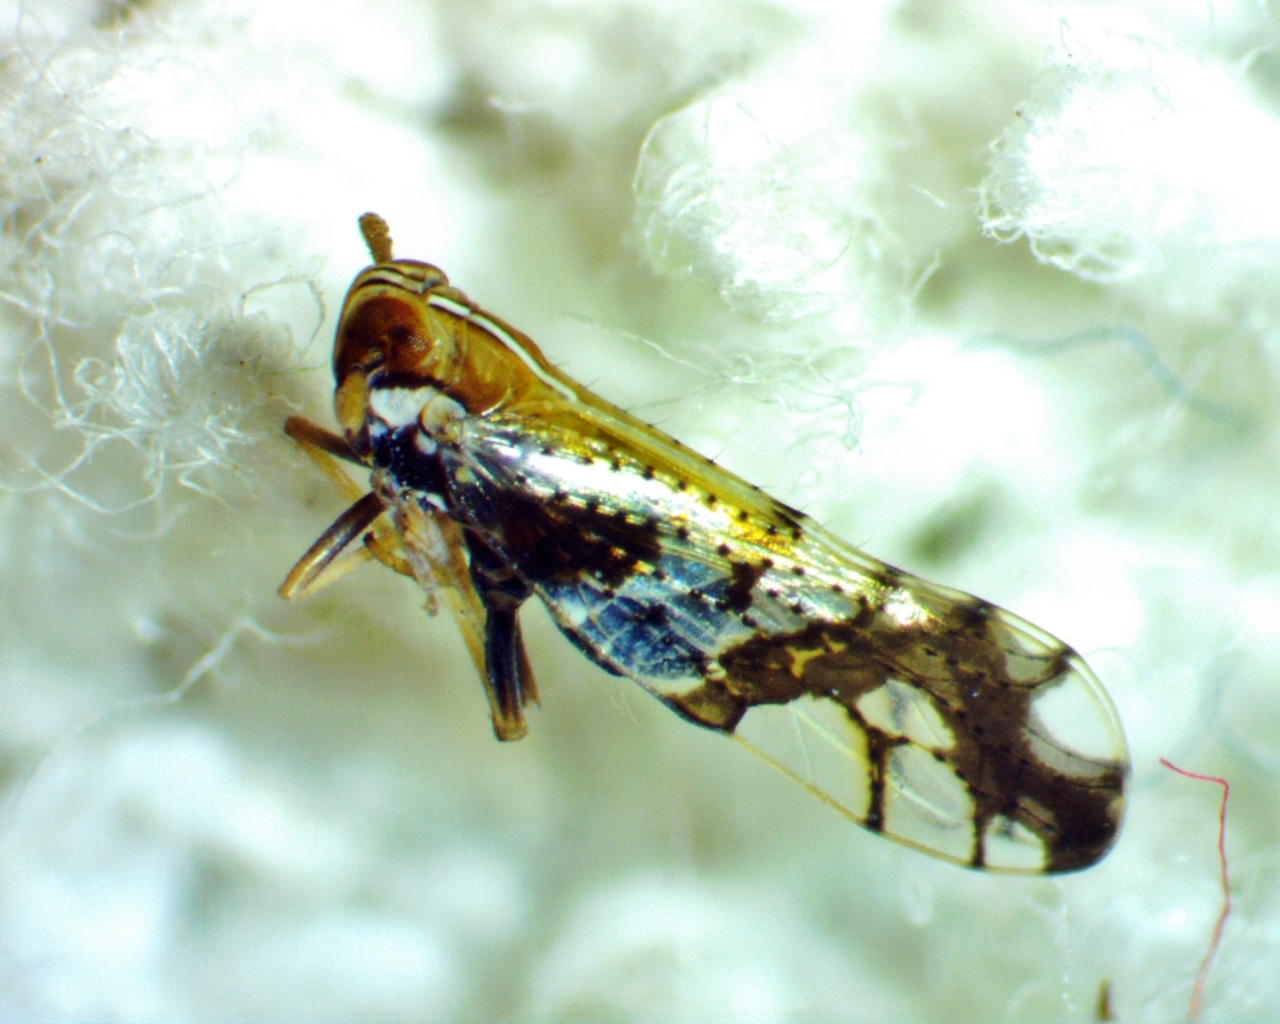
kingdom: Animalia
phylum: Arthropoda
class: Insecta
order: Hemiptera
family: Delphacidae
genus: Liburniella
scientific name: Liburniella ornata
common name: Ornate planthopper
